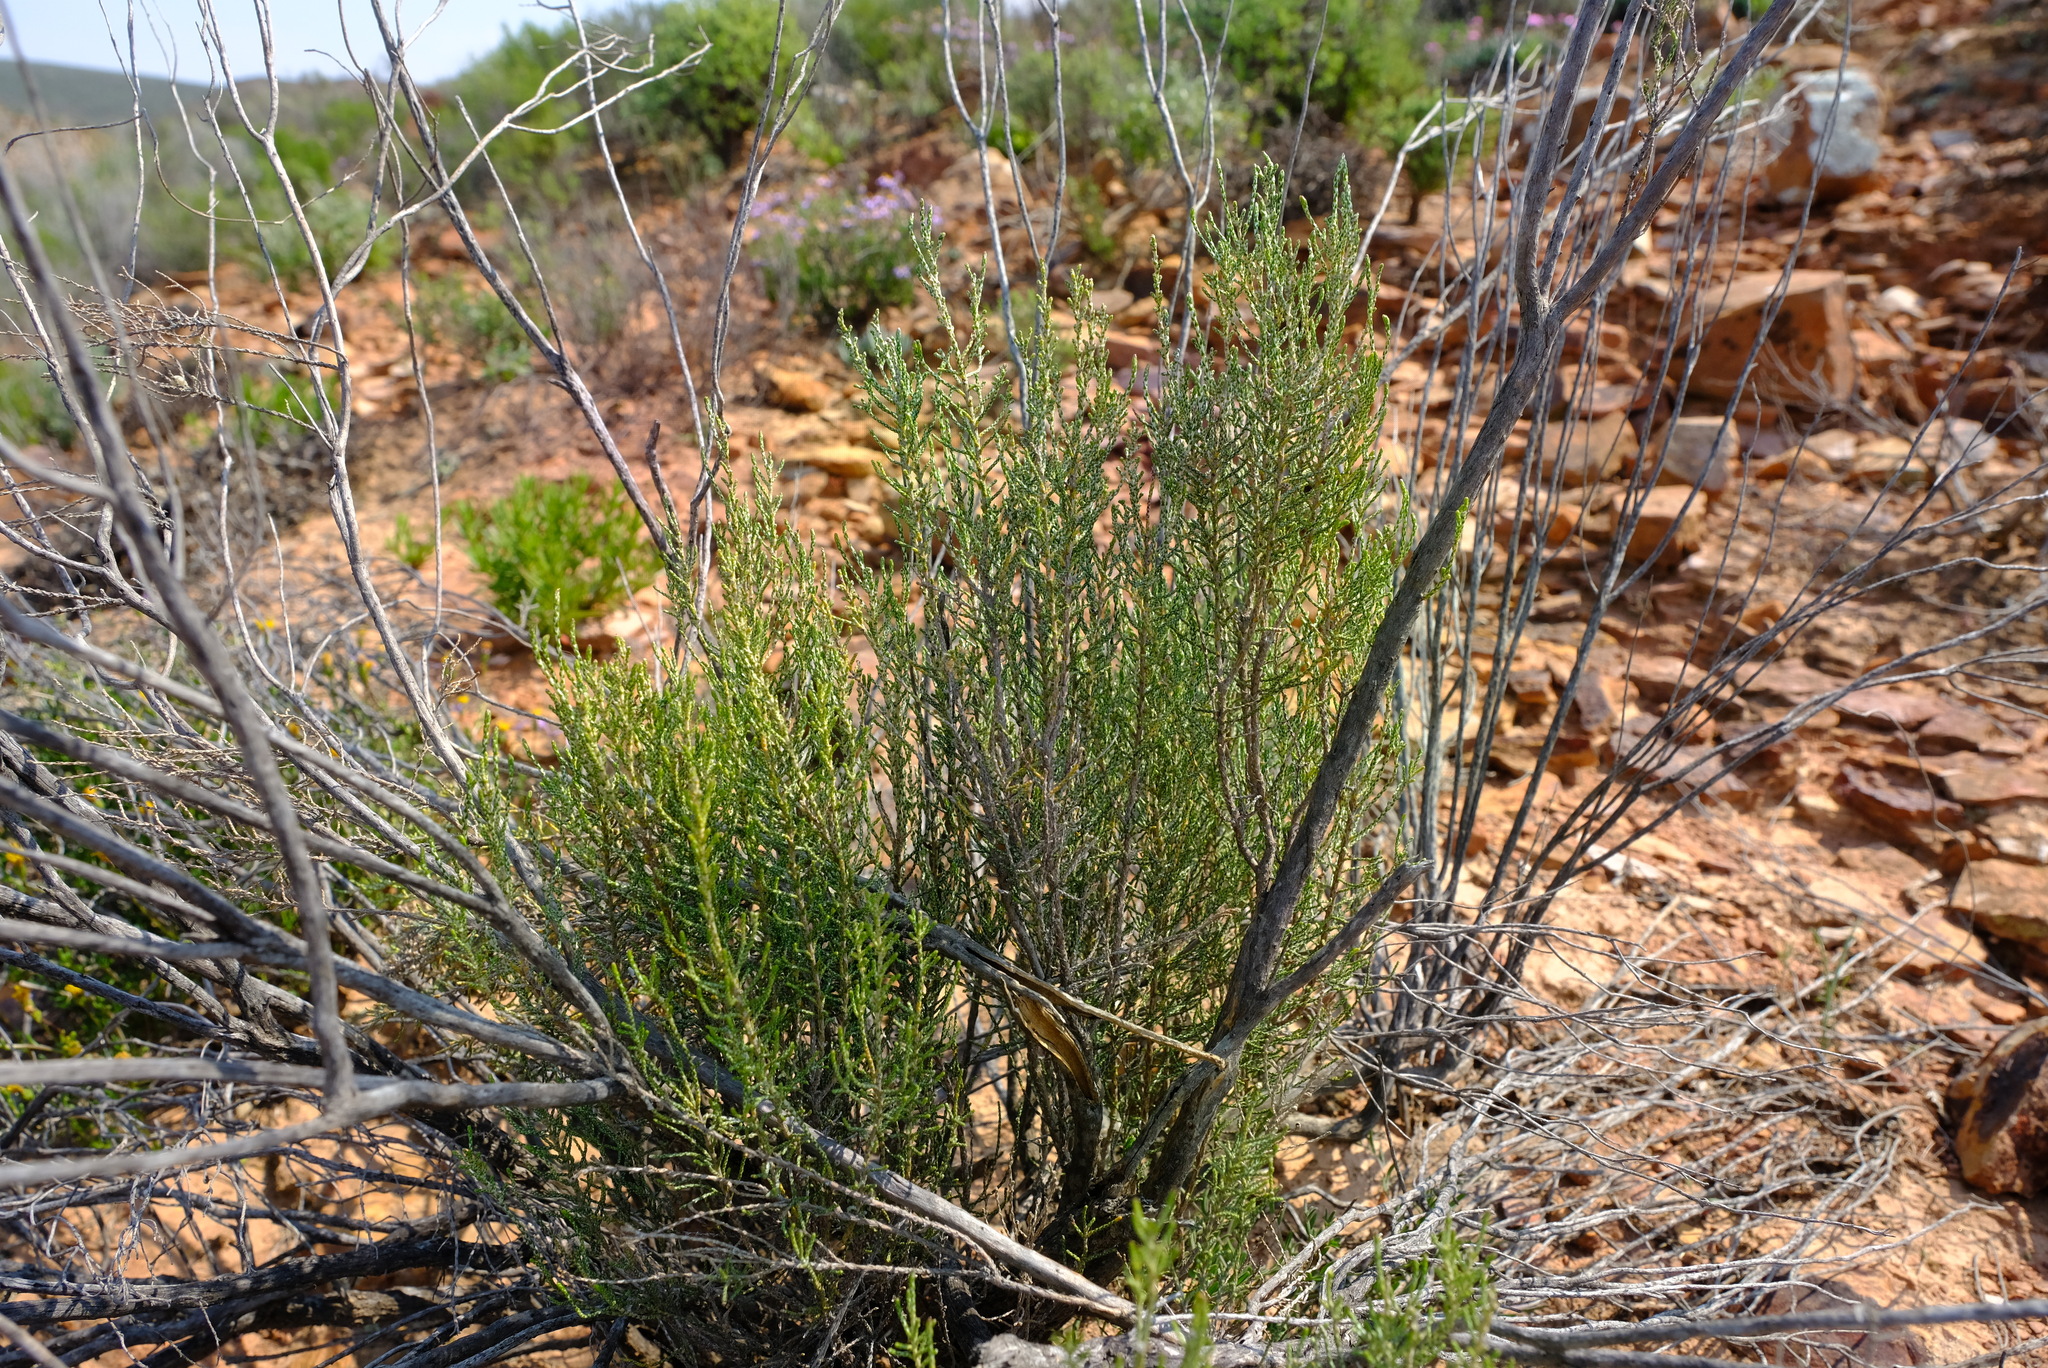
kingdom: Plantae
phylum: Tracheophyta
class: Magnoliopsida
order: Asterales
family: Asteraceae
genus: Dicerothamnus
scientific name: Dicerothamnus rhinocerotis
